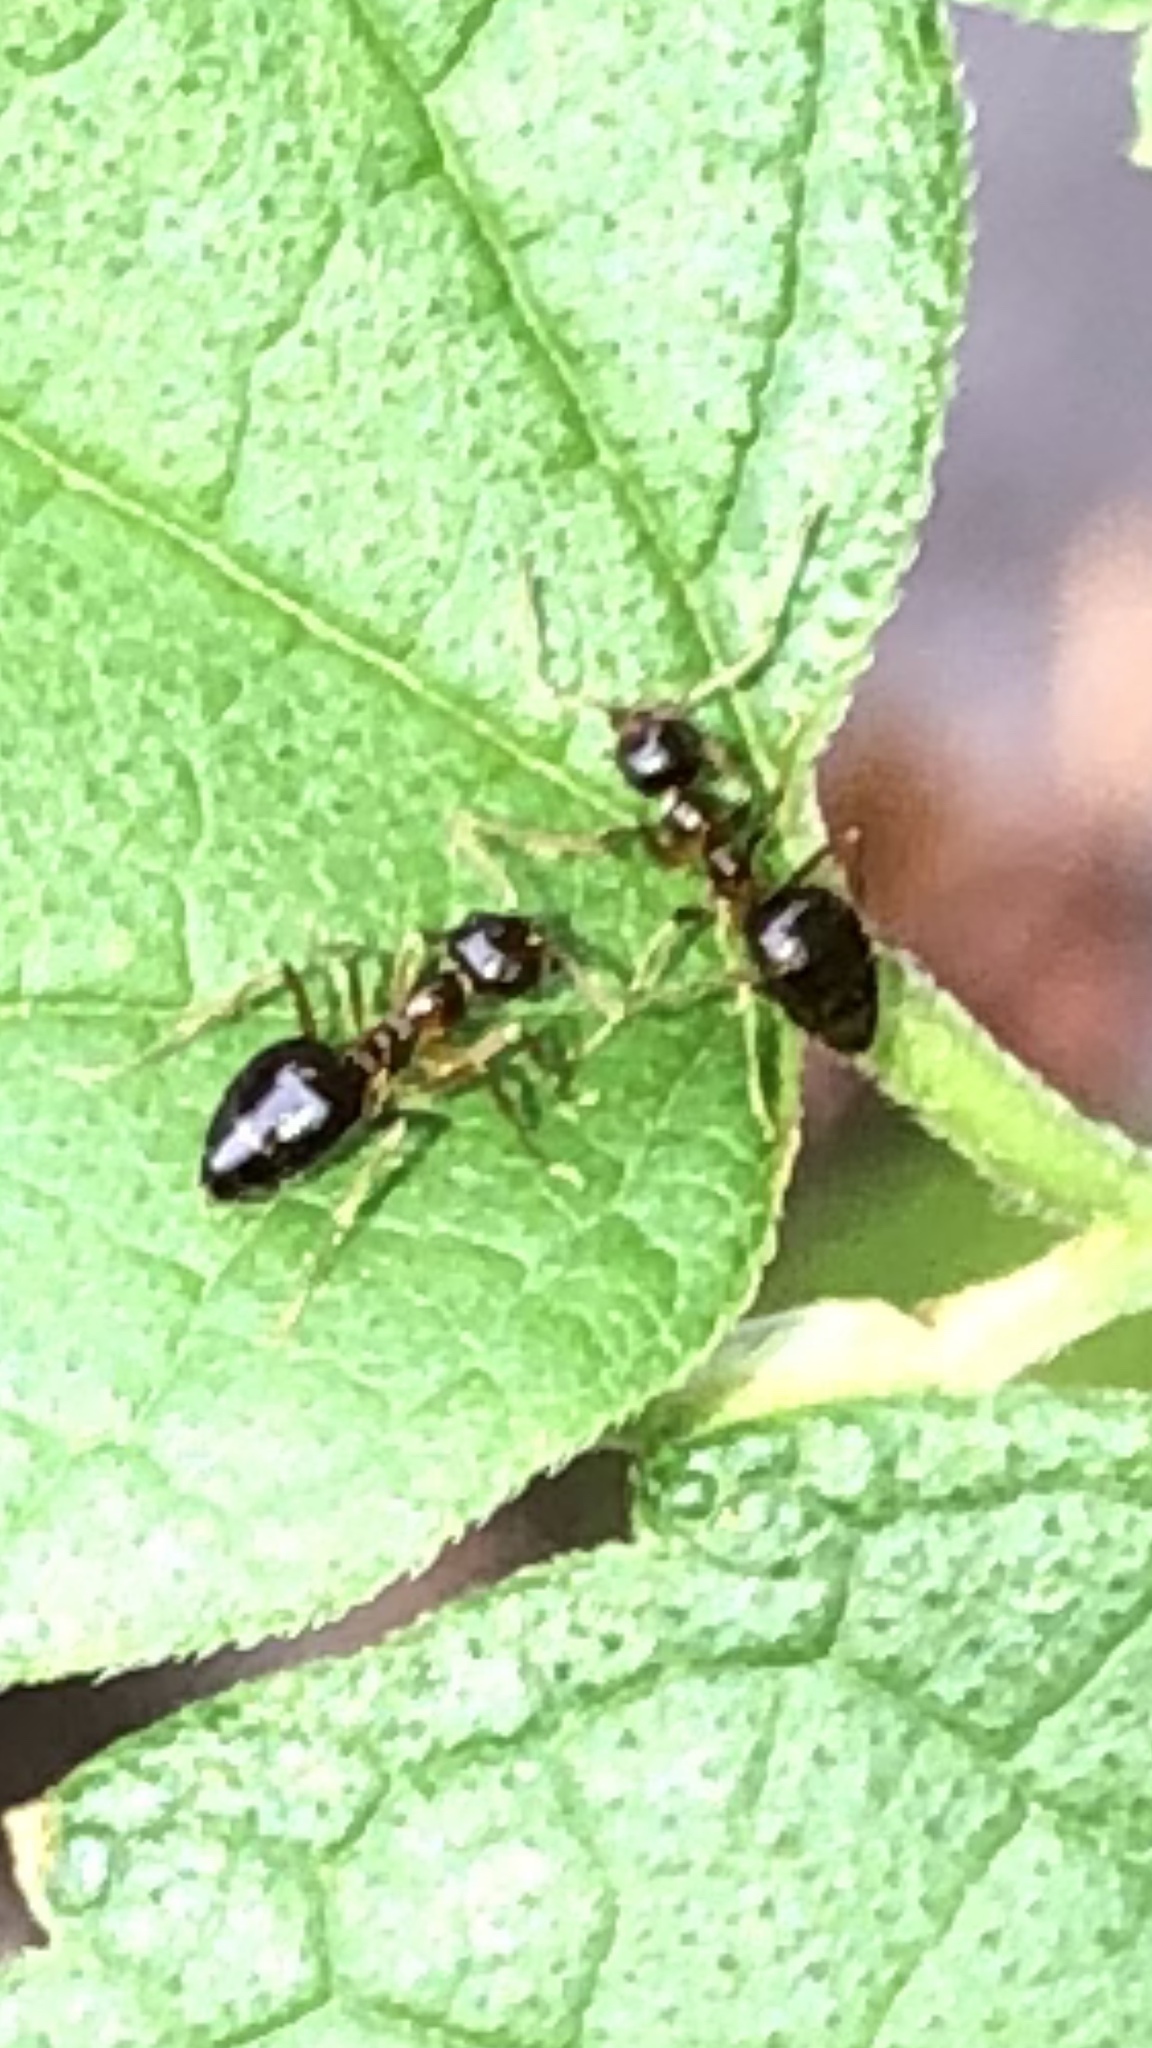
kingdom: Animalia
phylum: Arthropoda
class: Insecta
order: Hymenoptera
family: Formicidae
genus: Prenolepis
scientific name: Prenolepis imparis
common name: Small honey ant
